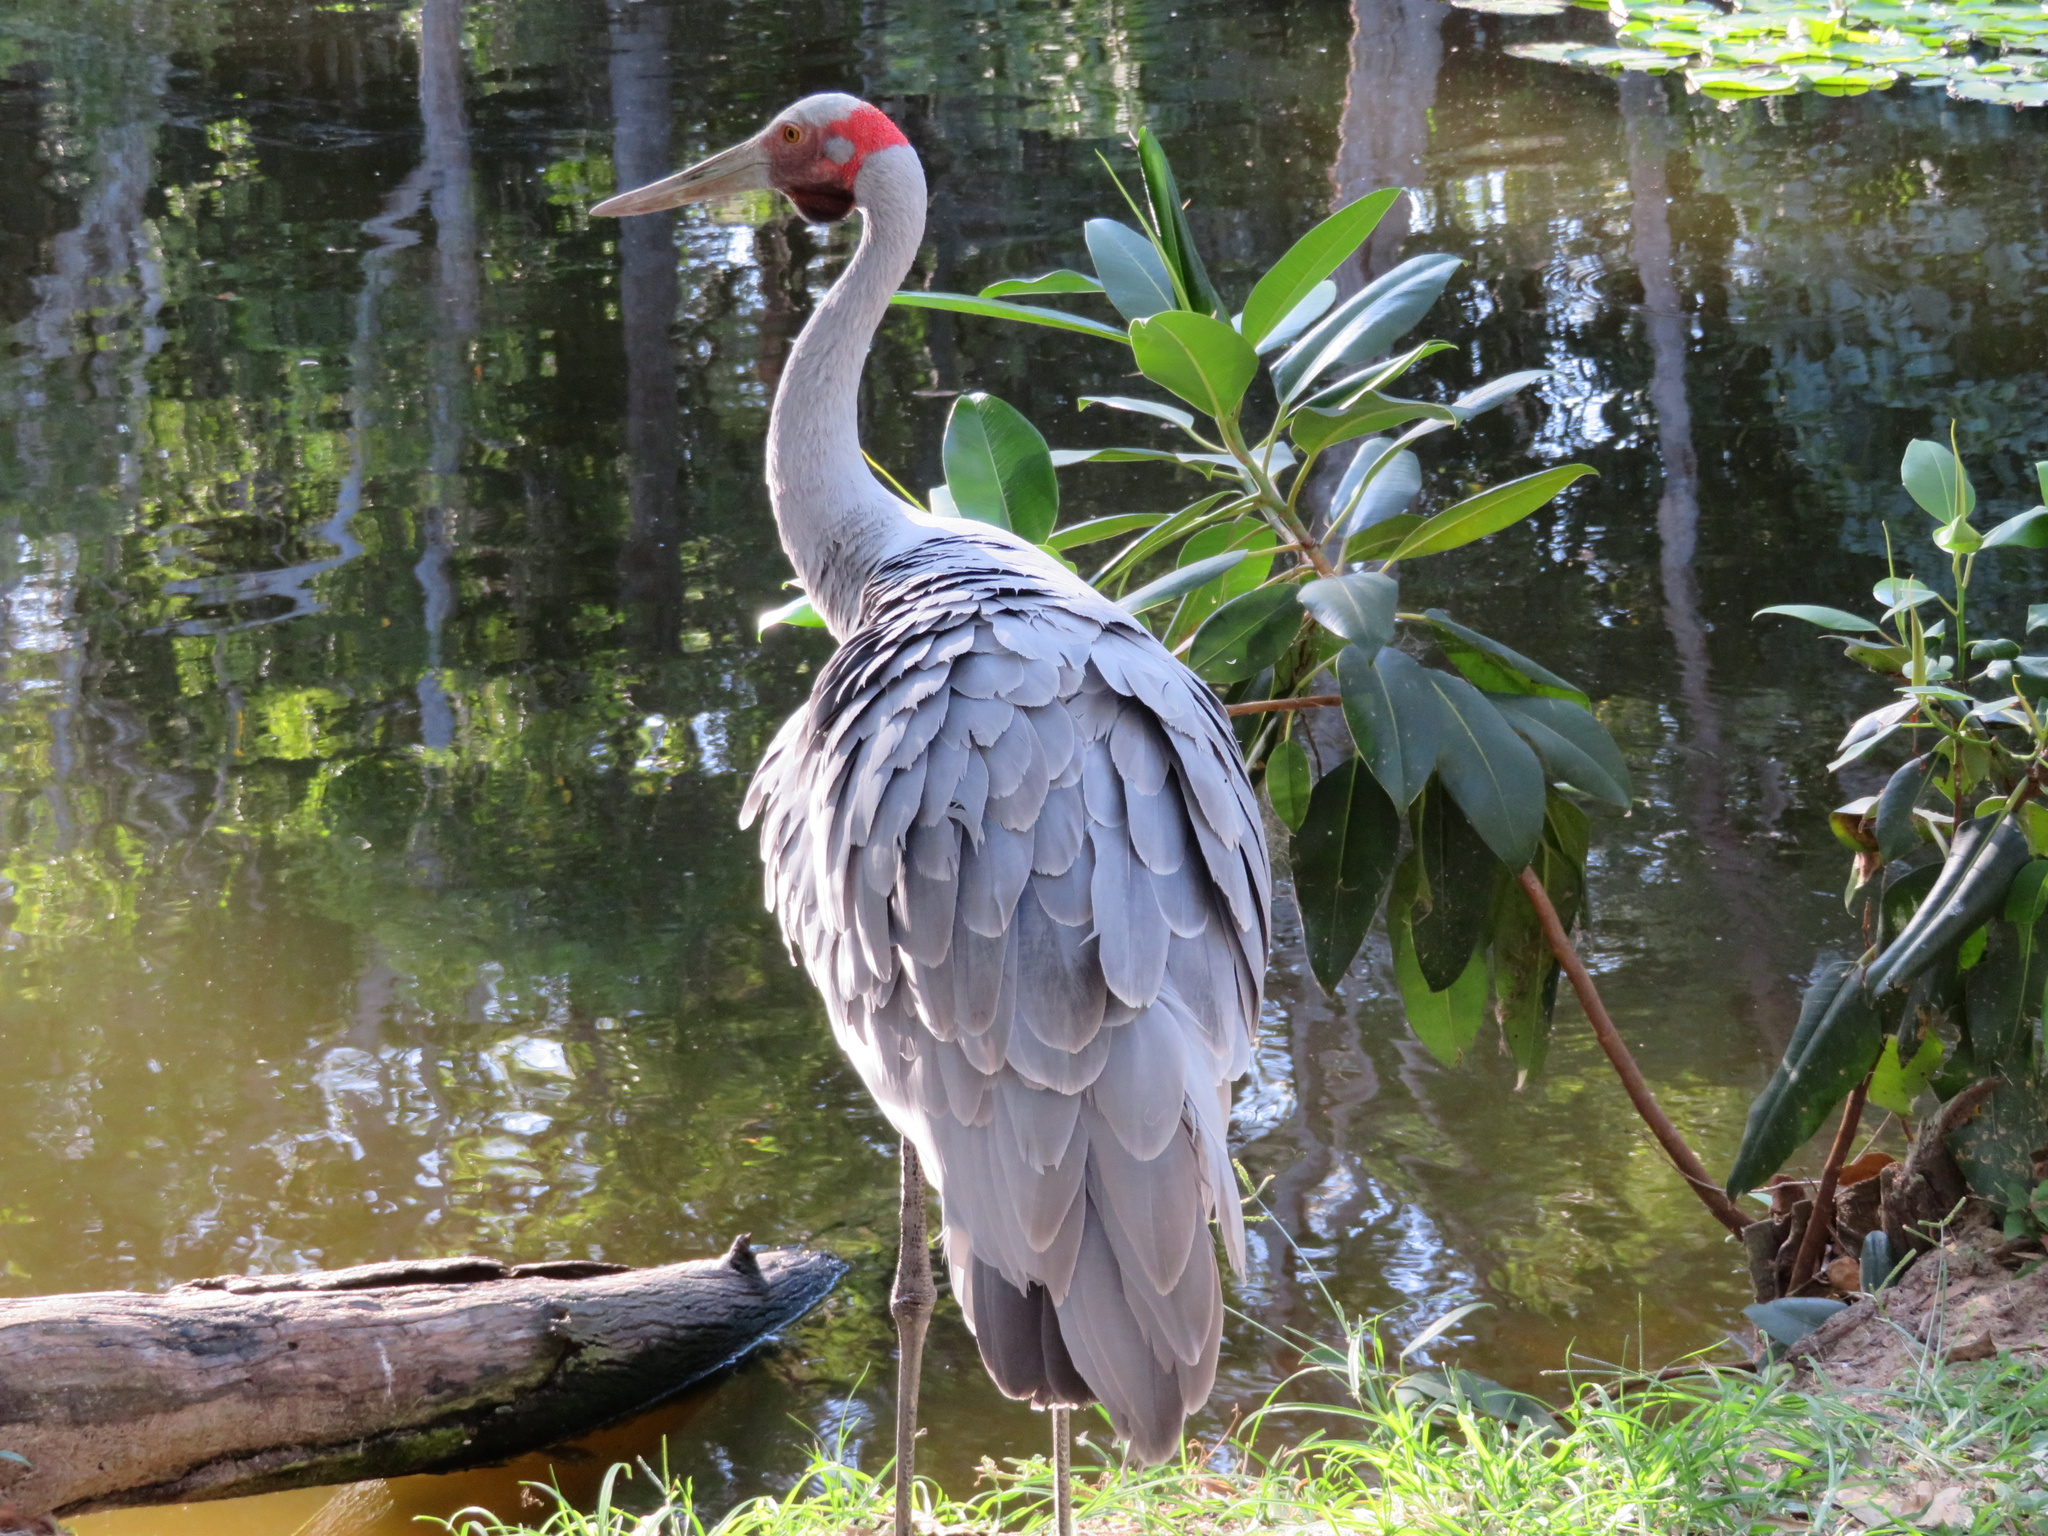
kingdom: Animalia
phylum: Chordata
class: Aves
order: Gruiformes
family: Gruidae
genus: Grus
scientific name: Grus rubicunda
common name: Brolga
